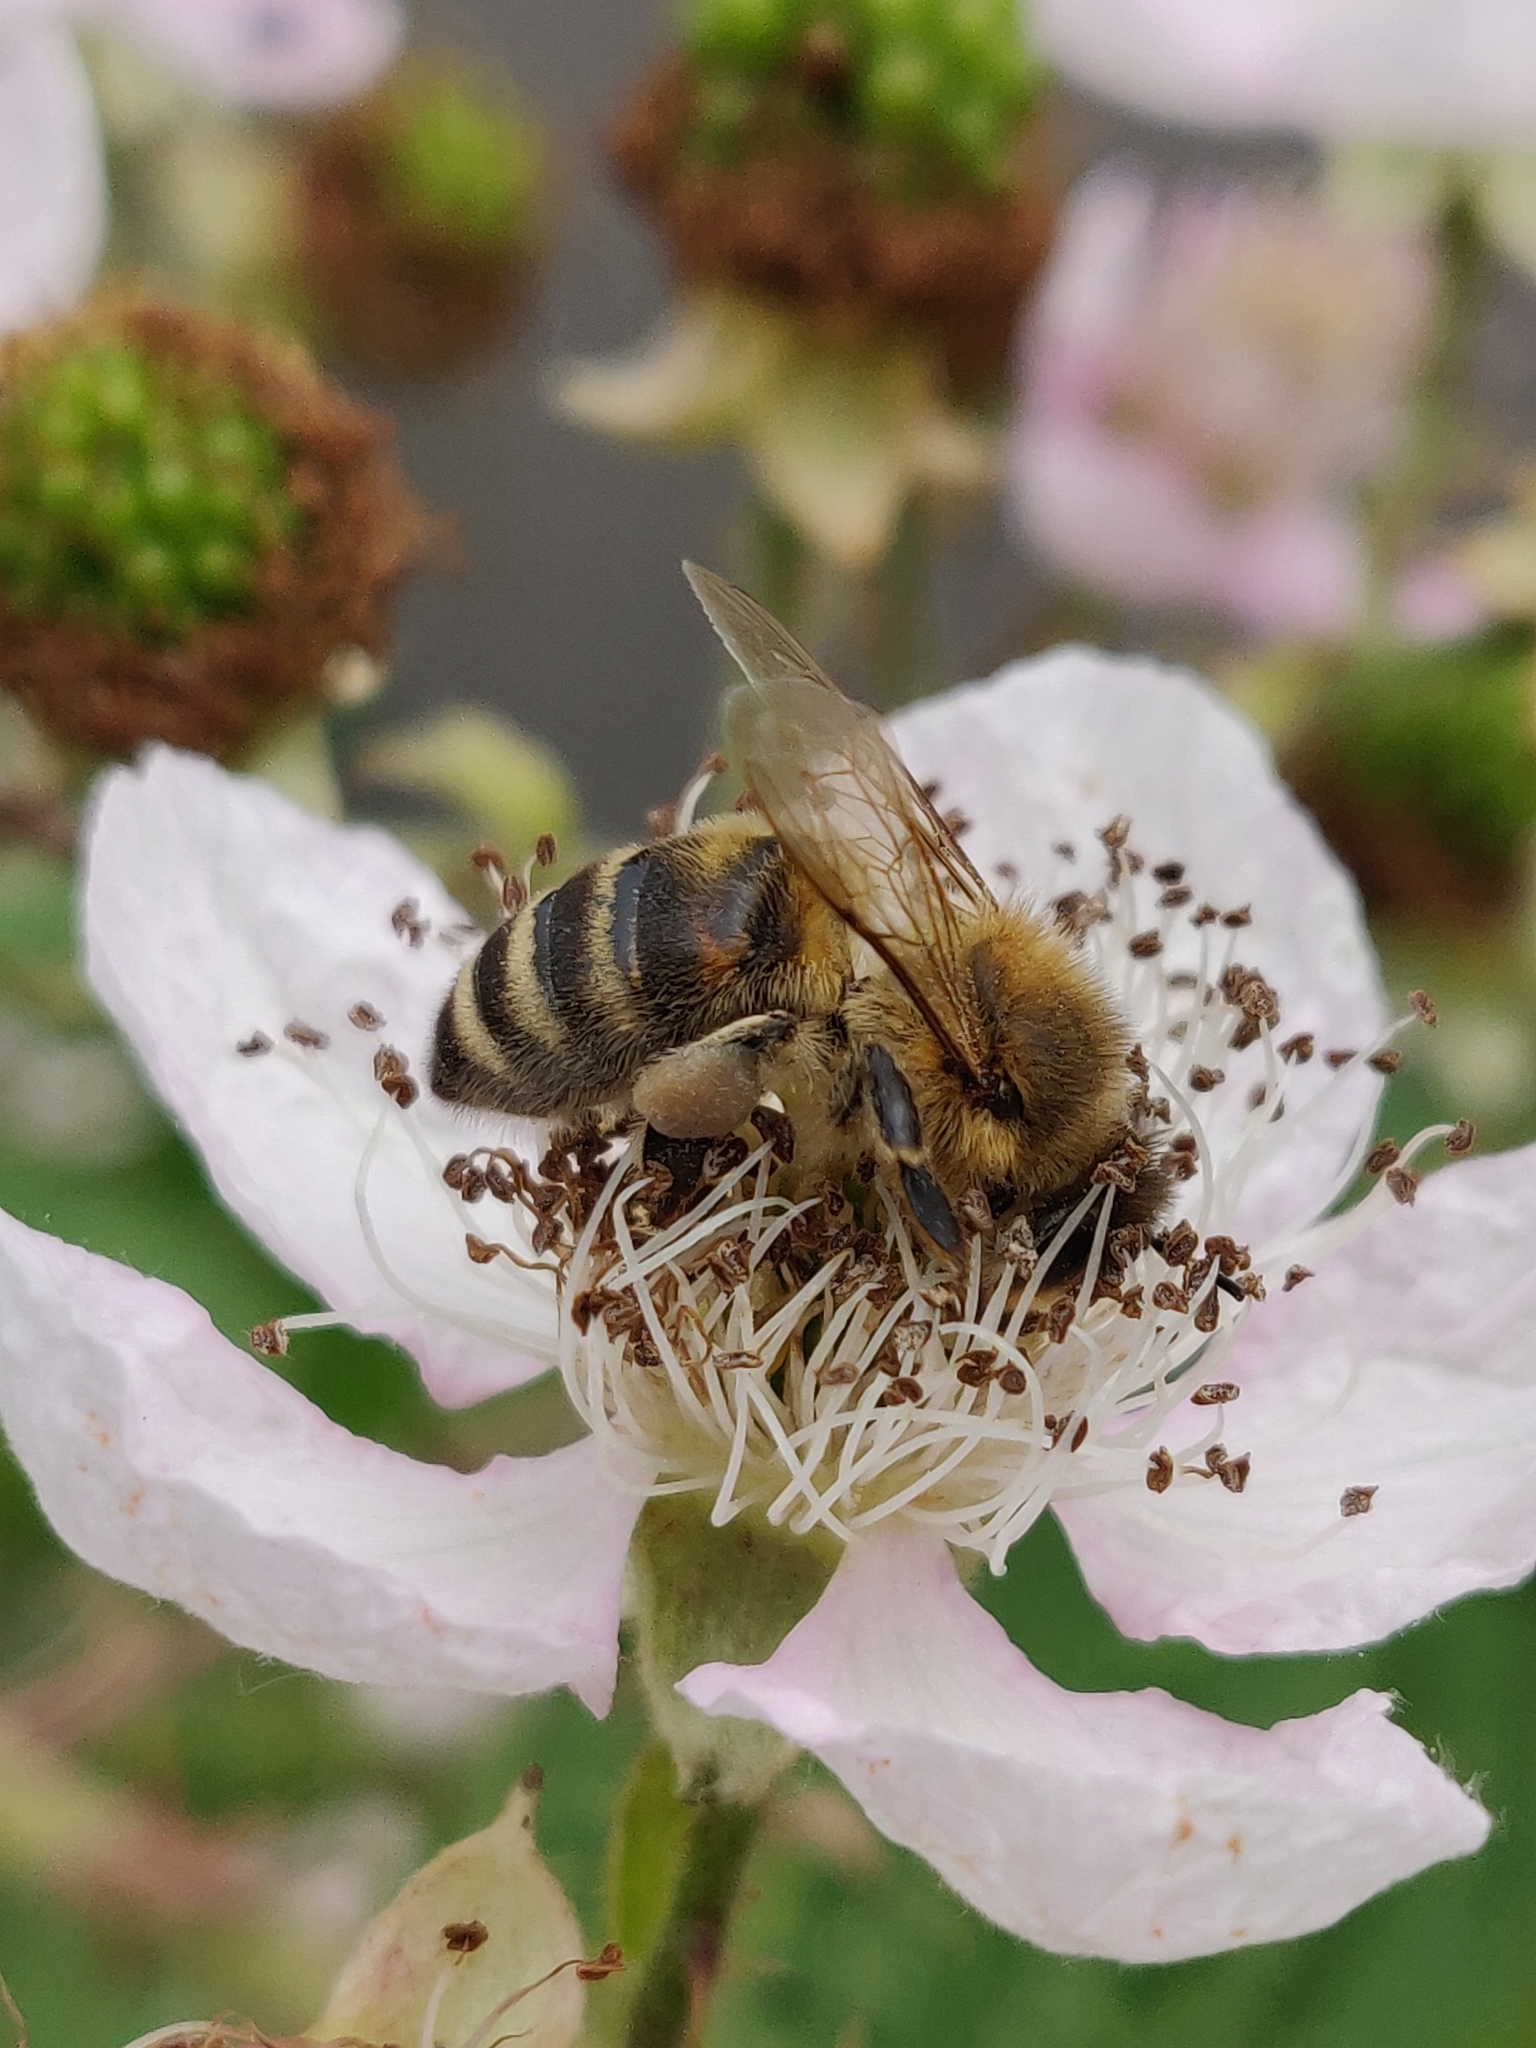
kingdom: Animalia
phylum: Arthropoda
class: Insecta
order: Hymenoptera
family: Apidae
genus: Apis
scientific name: Apis mellifera
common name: Honey bee
